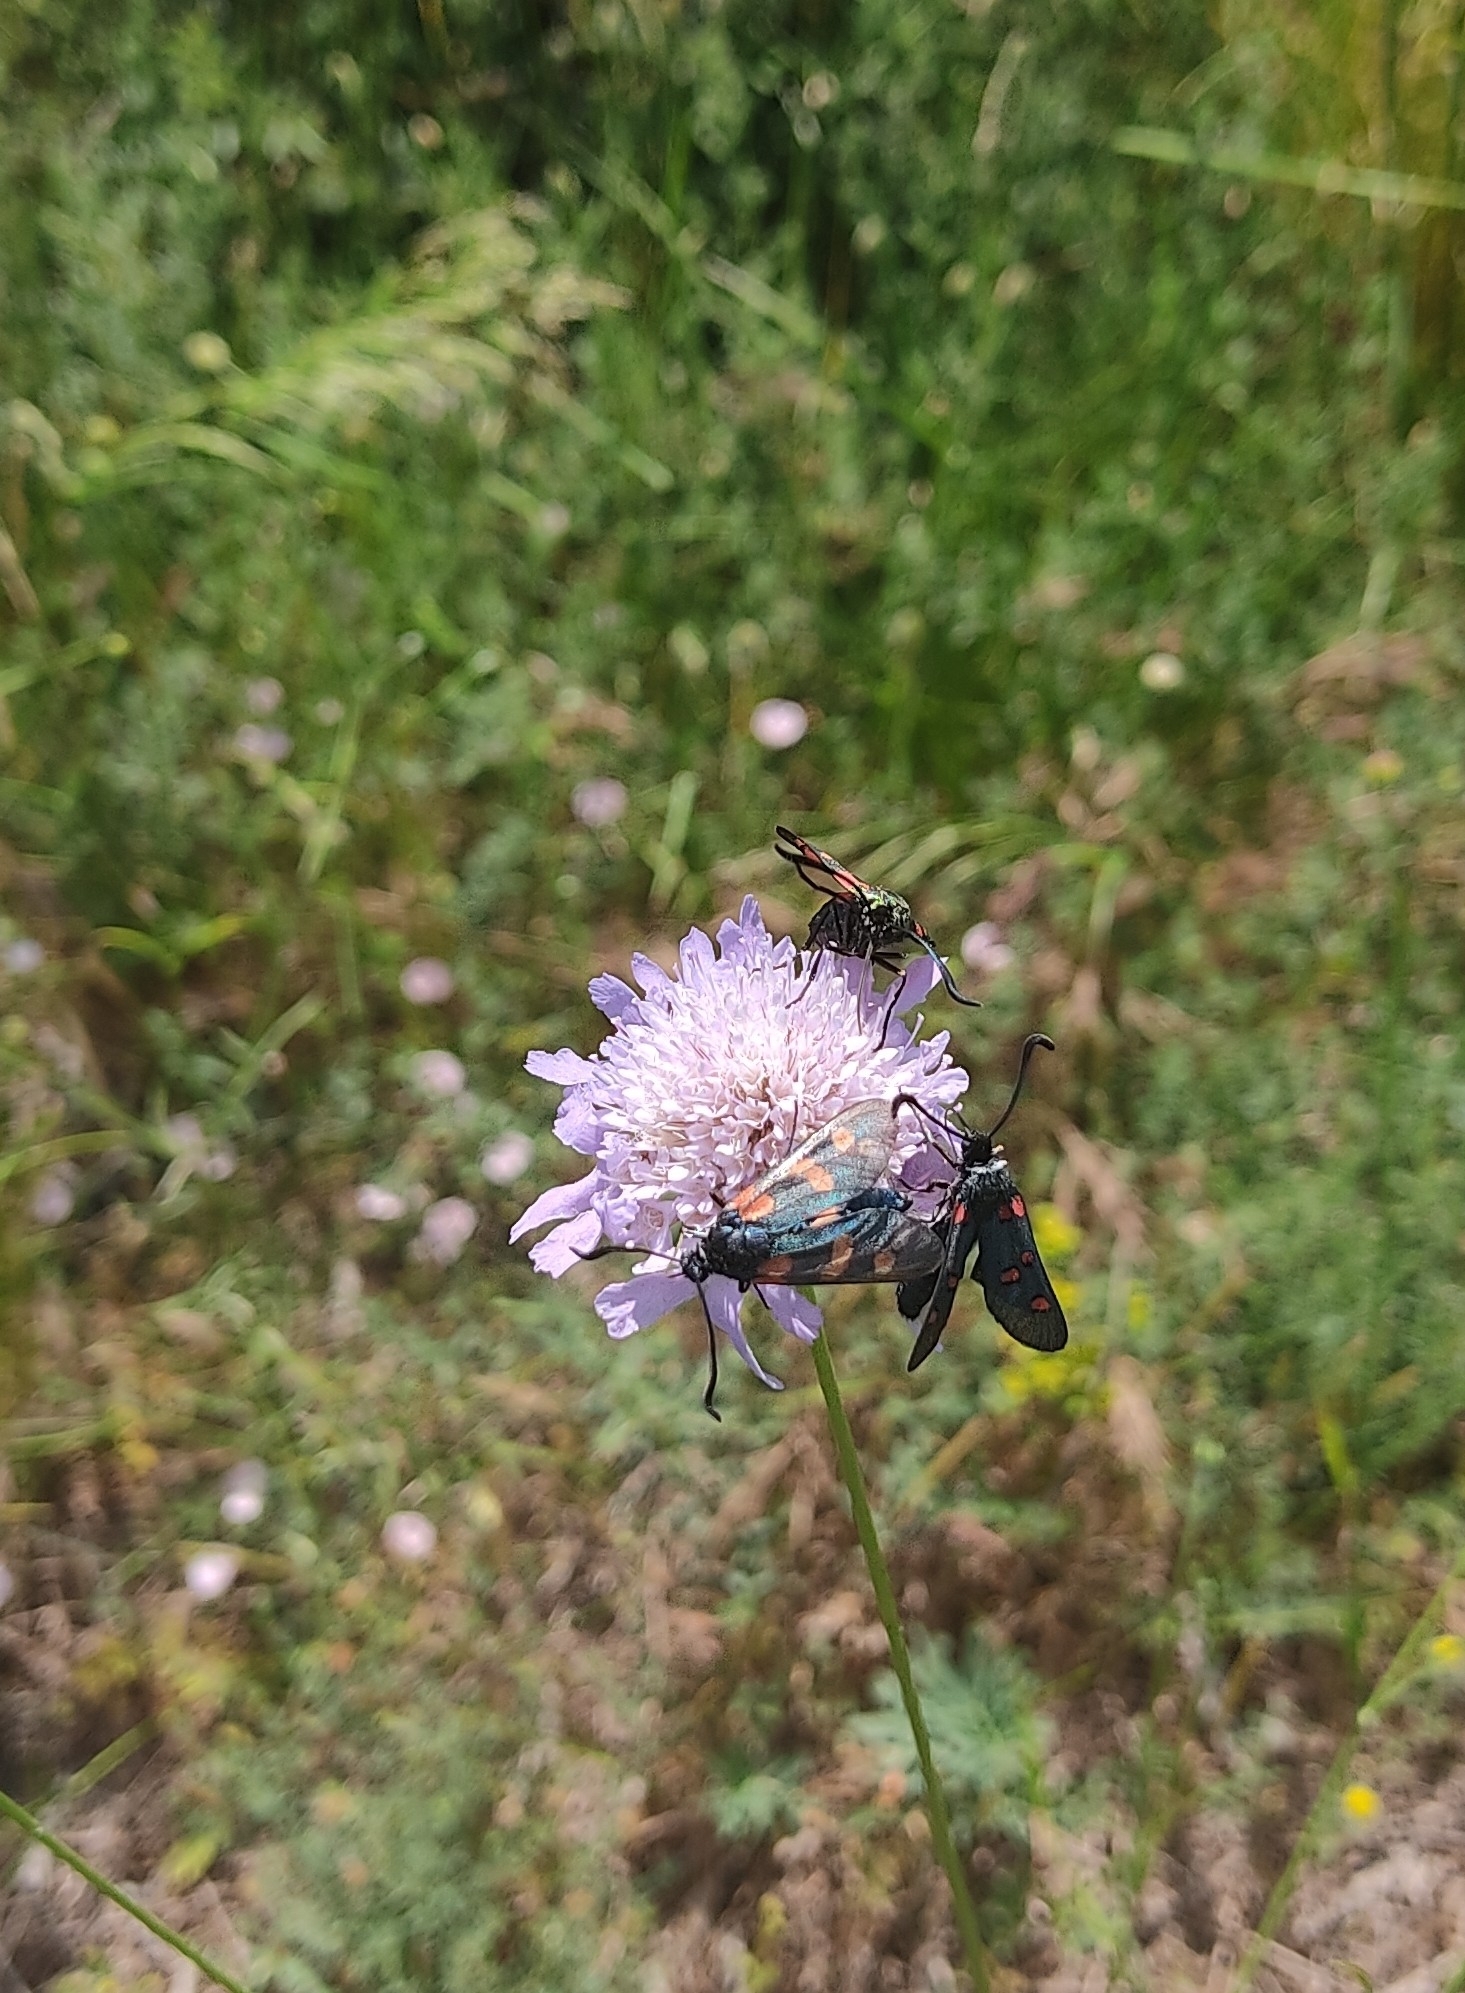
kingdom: Animalia
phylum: Arthropoda
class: Insecta
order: Lepidoptera
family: Zygaenidae
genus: Zygaena
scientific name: Zygaena lavandulae
